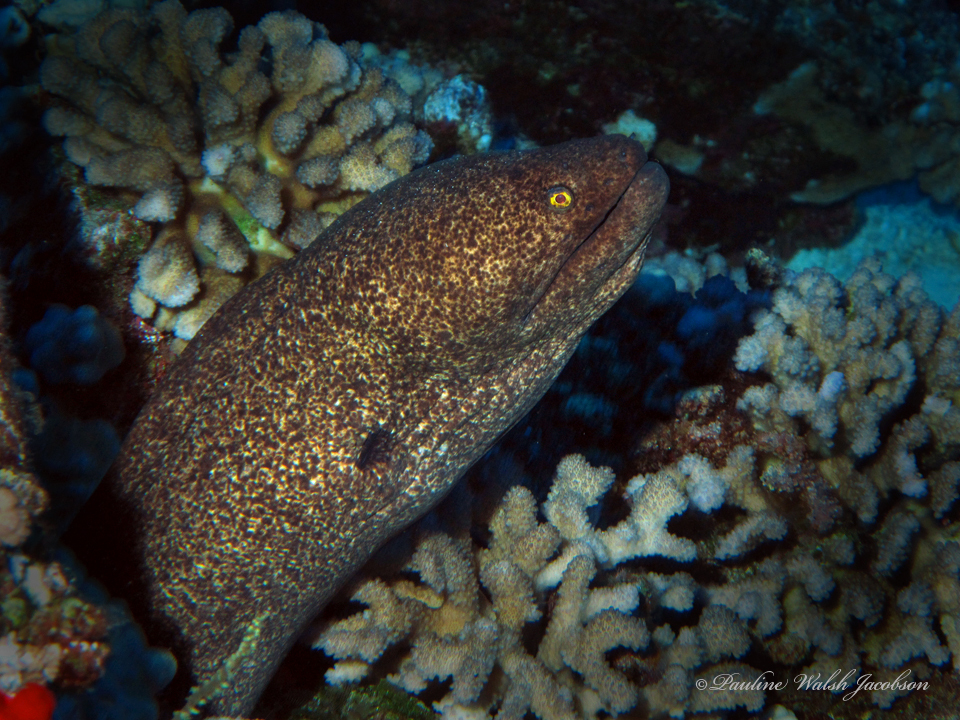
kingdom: Animalia
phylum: Chordata
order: Anguilliformes
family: Muraenidae
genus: Gymnothorax
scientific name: Gymnothorax flavimarginatus
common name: Yellow-edged moray
